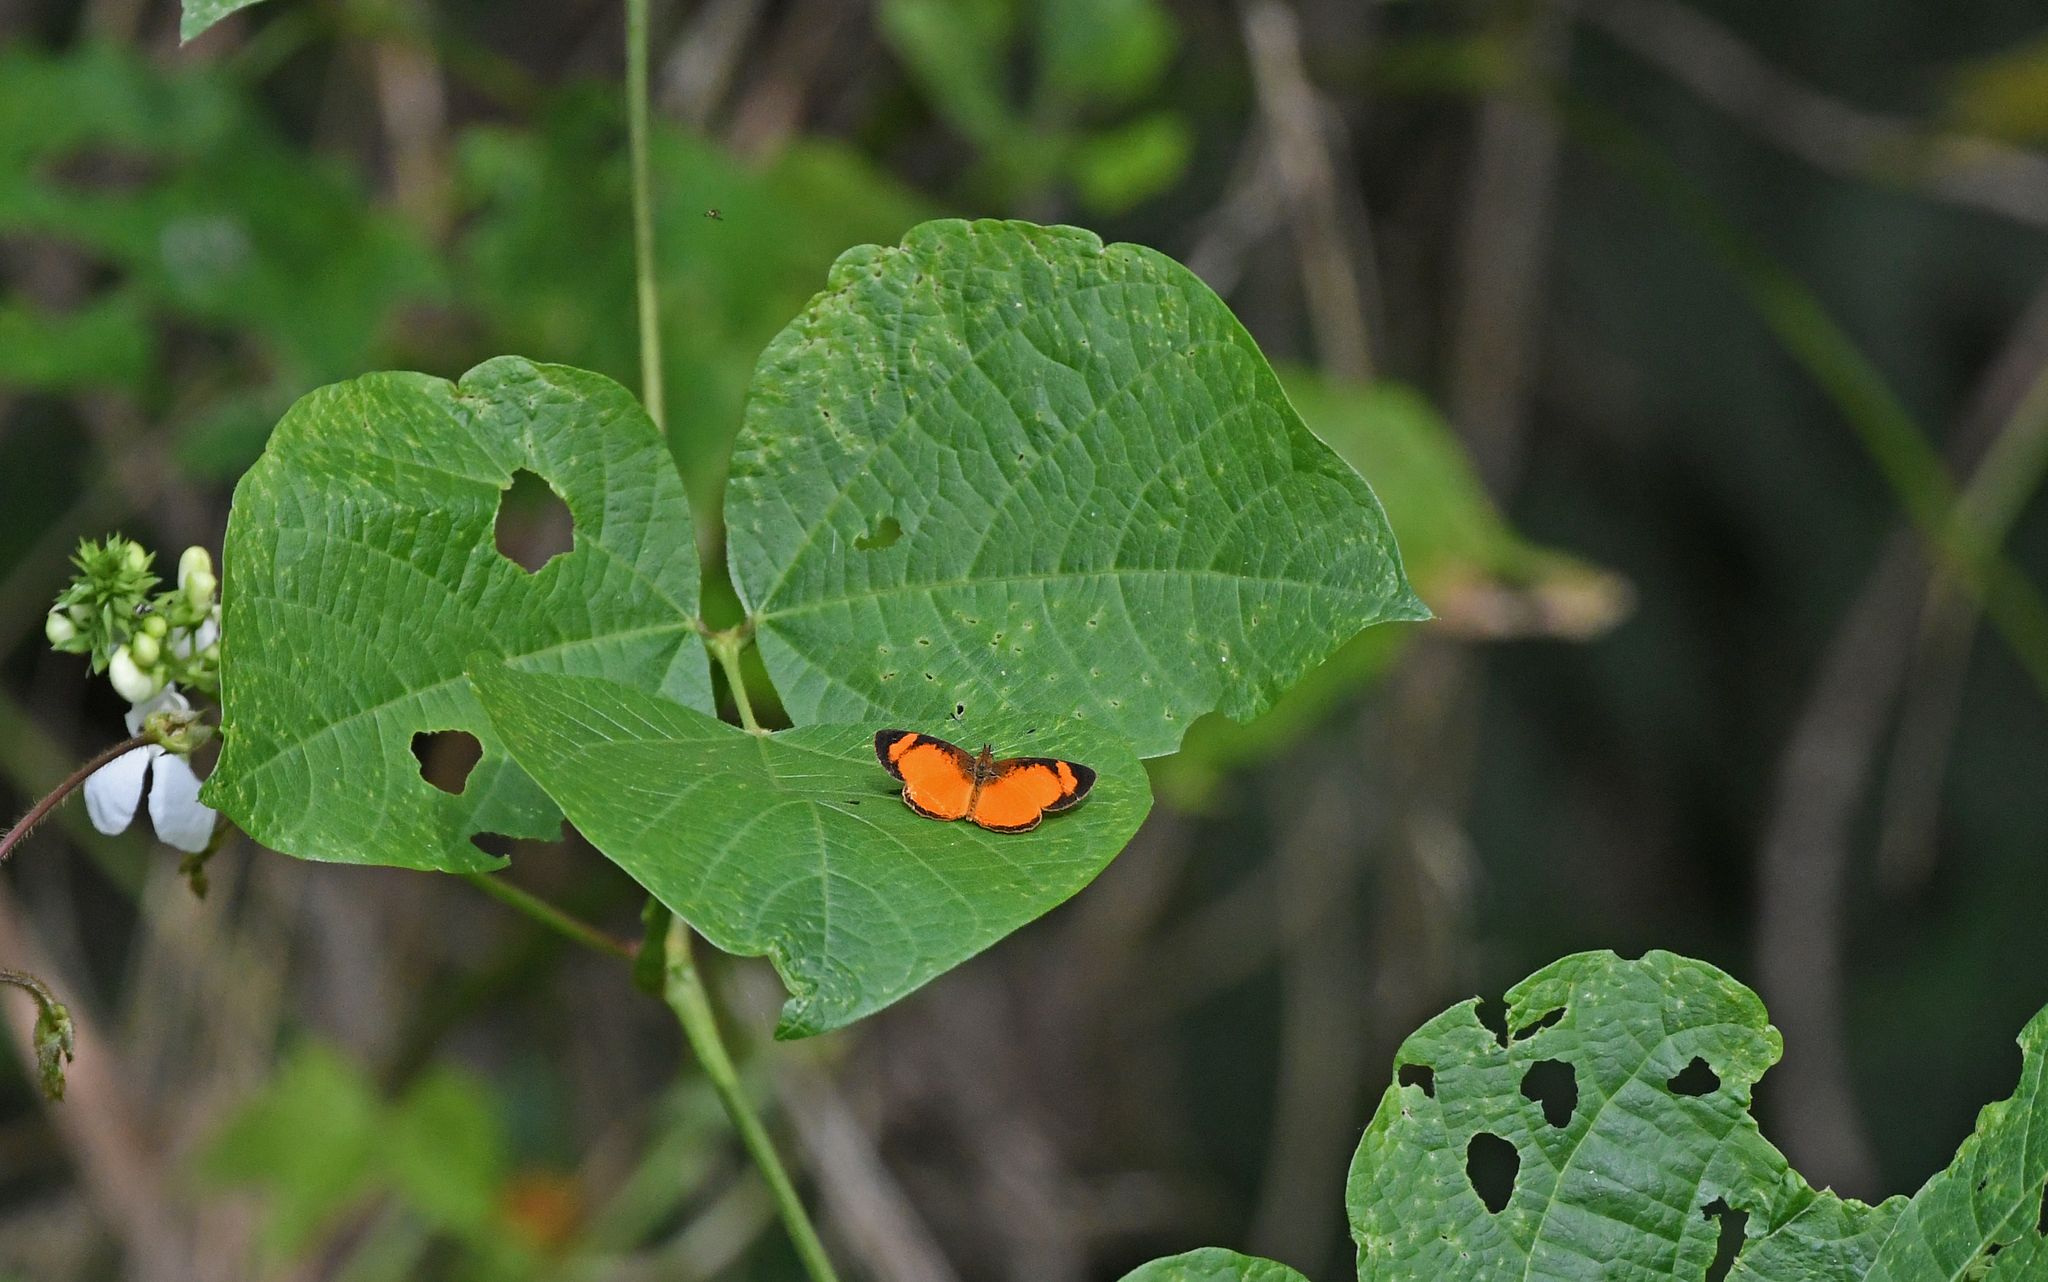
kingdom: Animalia
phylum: Arthropoda
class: Insecta
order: Lepidoptera
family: Nymphalidae
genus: Tegosa
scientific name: Tegosa anieta
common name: Black-bordered crescent
